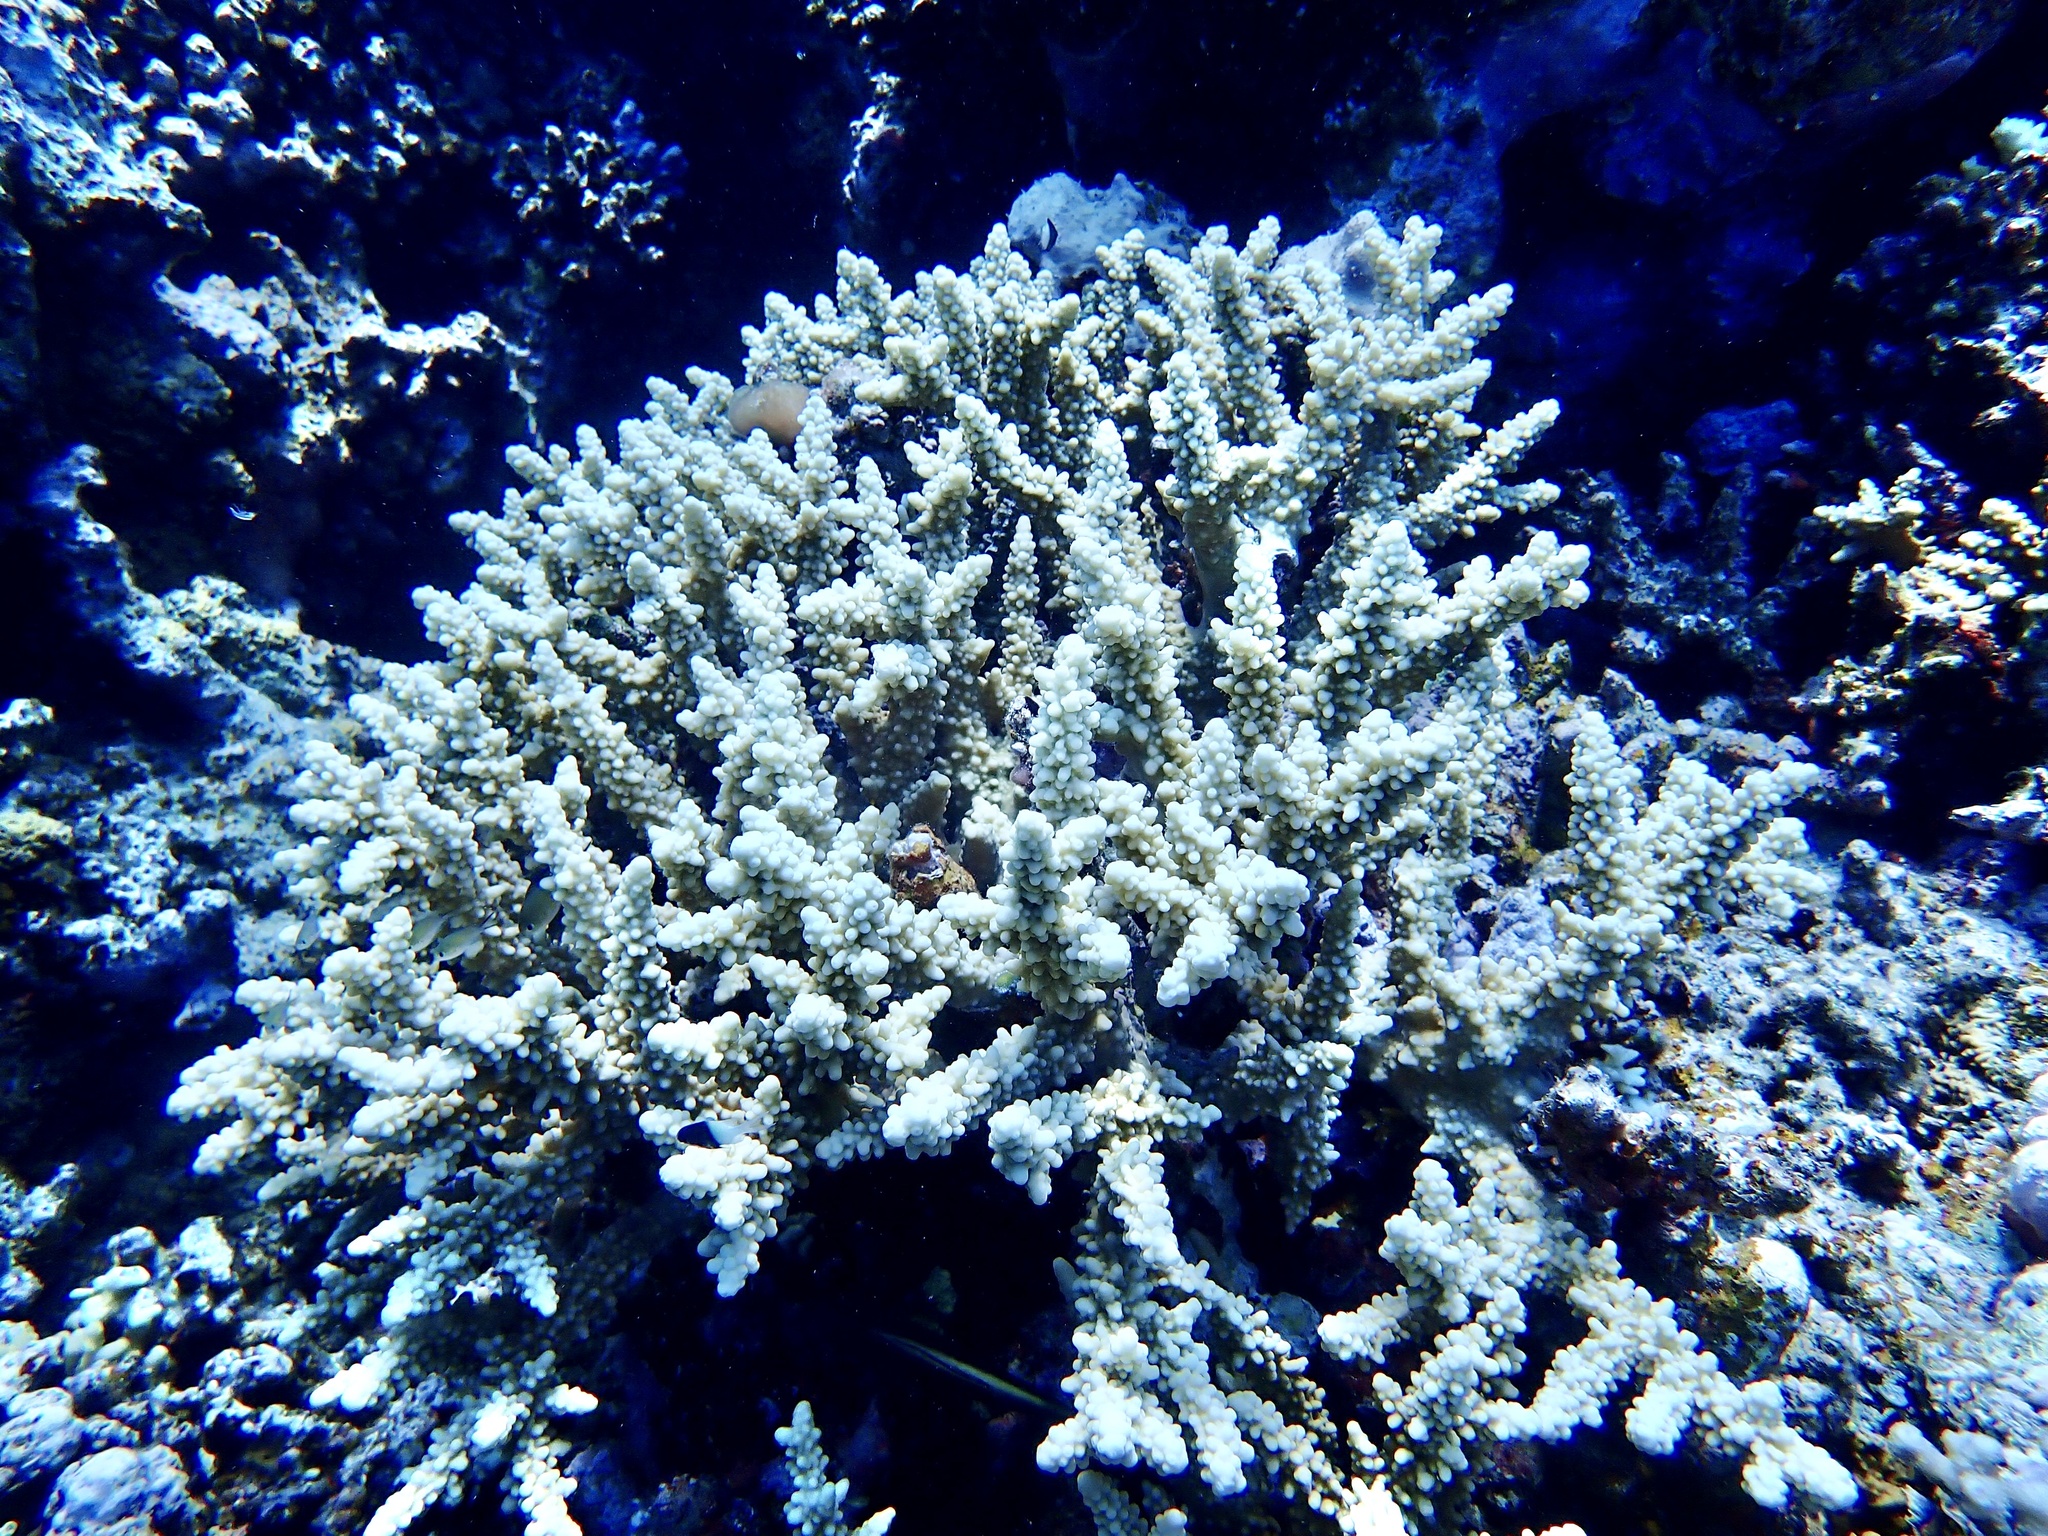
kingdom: Animalia
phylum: Cnidaria
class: Anthozoa
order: Scleractinia
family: Acroporidae
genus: Acropora
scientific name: Acropora hemprichii
